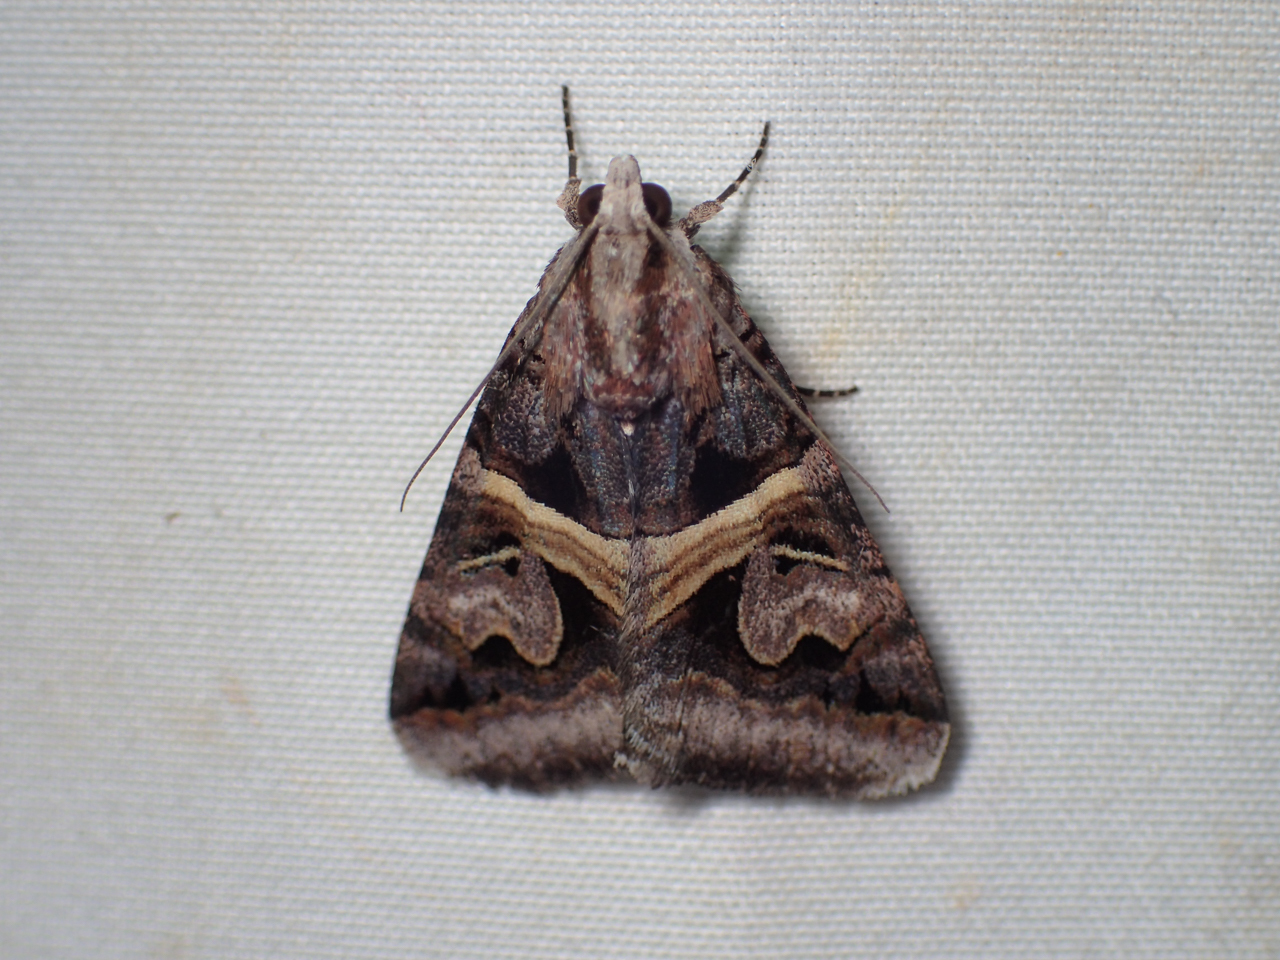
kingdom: Animalia
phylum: Arthropoda
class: Insecta
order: Lepidoptera
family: Erebidae
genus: Drasteria
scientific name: Drasteria grandirena
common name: Figure-seven moth
